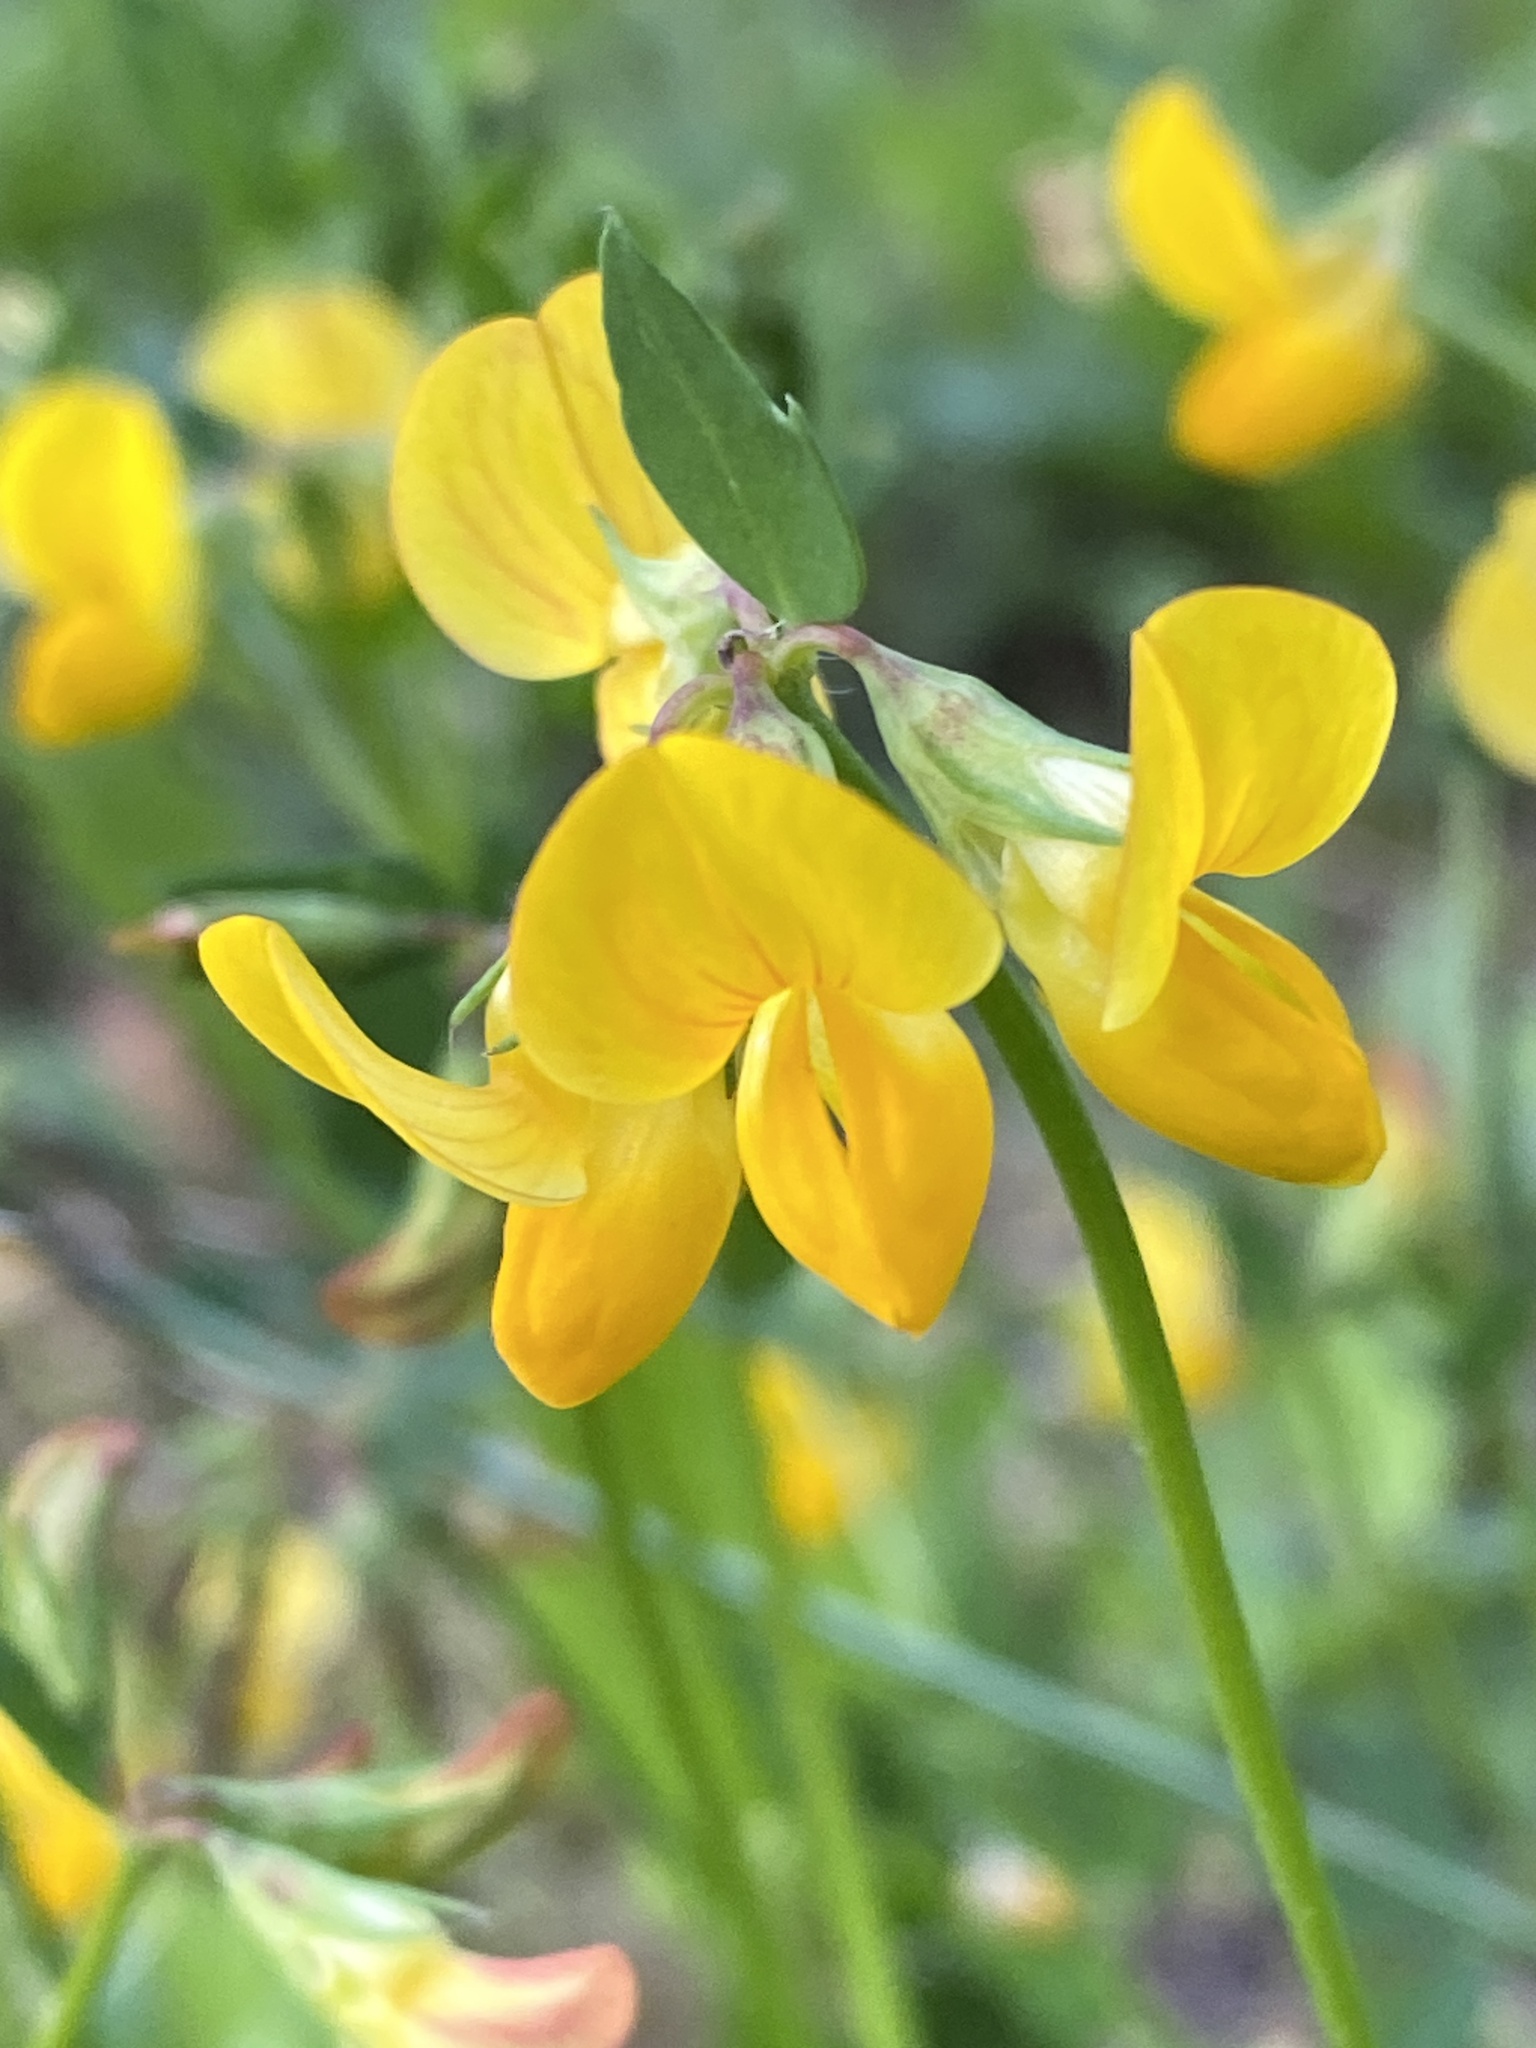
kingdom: Plantae
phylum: Tracheophyta
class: Magnoliopsida
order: Fabales
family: Fabaceae
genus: Lotus
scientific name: Lotus corniculatus
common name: Common bird's-foot-trefoil
